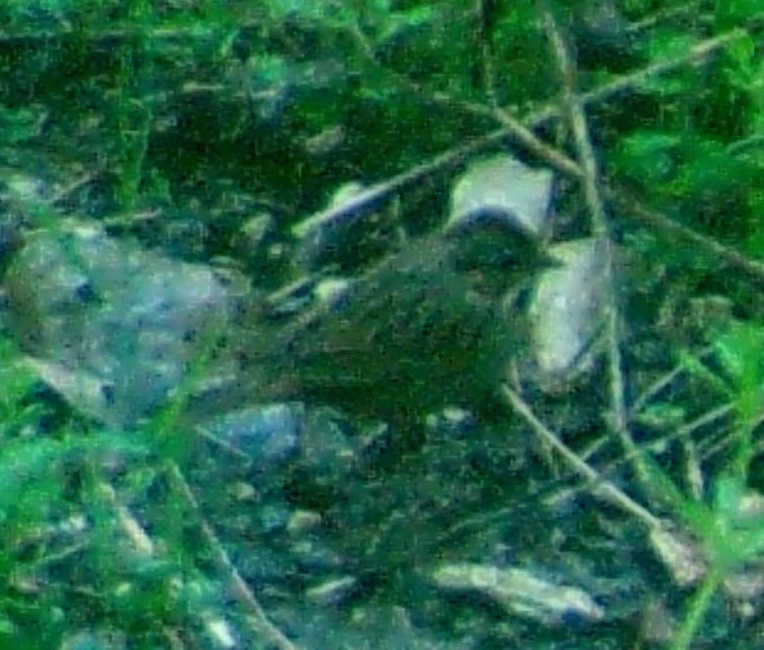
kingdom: Animalia
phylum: Chordata
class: Aves
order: Passeriformes
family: Passerellidae
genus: Melospiza
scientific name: Melospiza lincolnii
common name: Lincoln's sparrow
